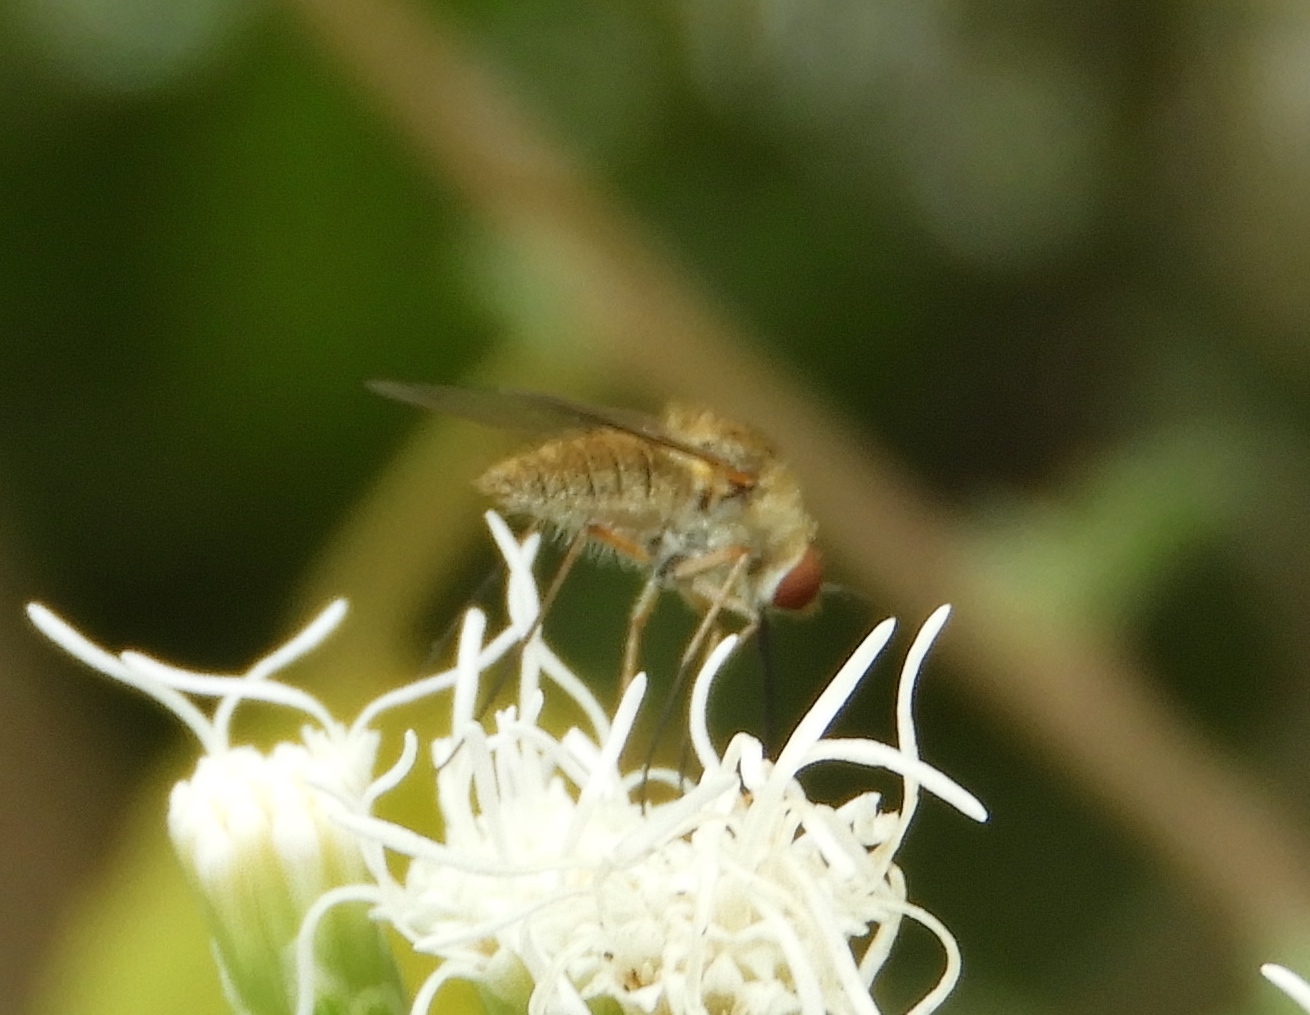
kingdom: Animalia
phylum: Arthropoda
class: Insecta
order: Diptera
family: Bombyliidae
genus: Geron
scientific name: Geron
